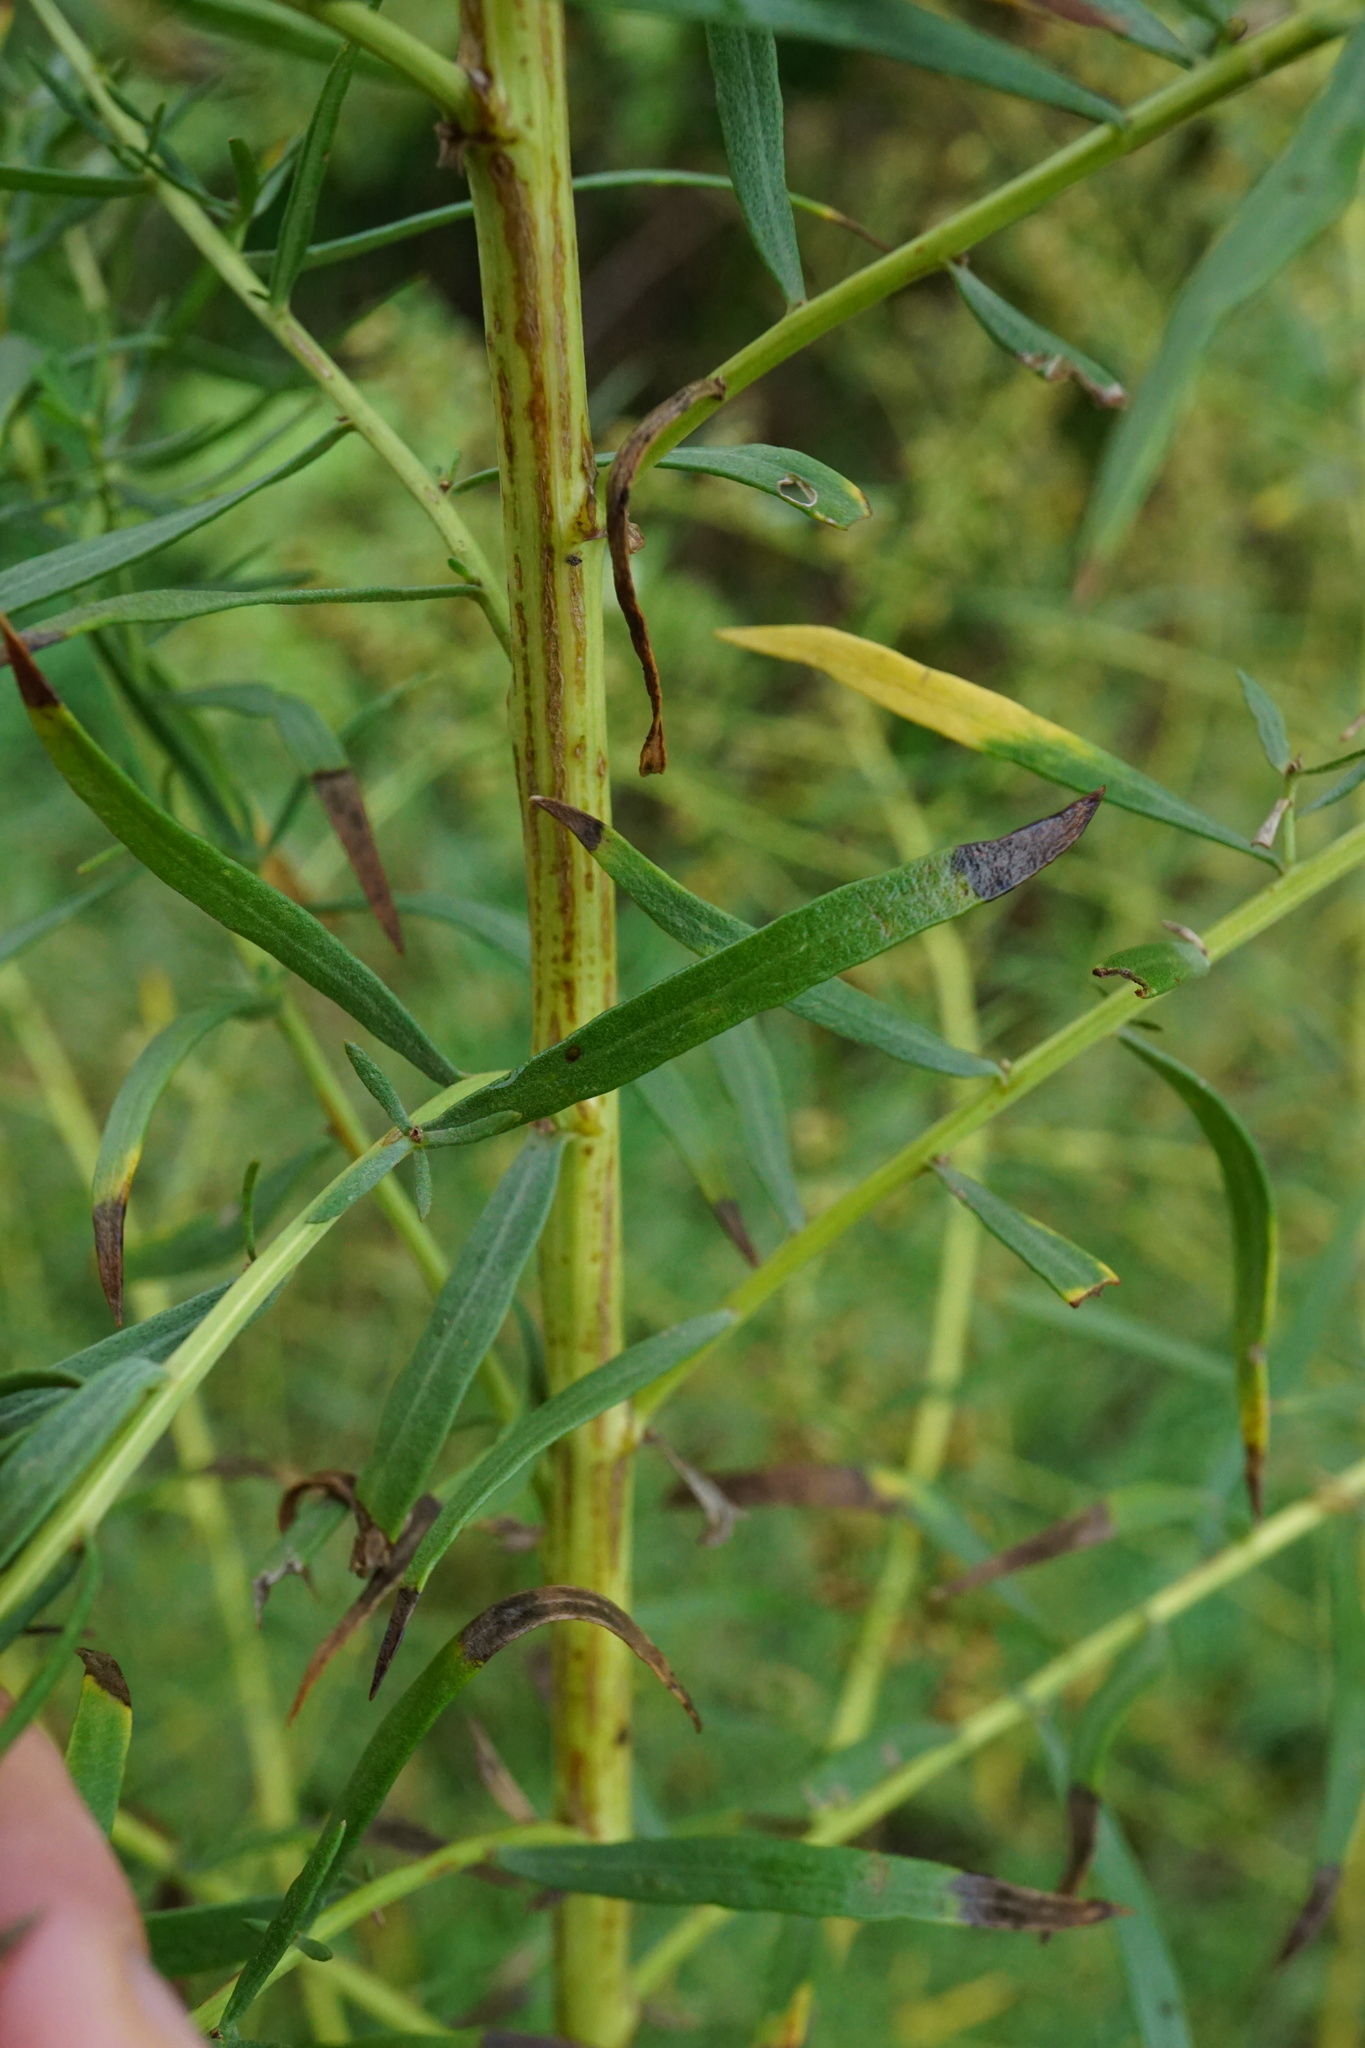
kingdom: Plantae
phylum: Tracheophyta
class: Magnoliopsida
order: Asterales
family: Asteraceae
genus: Artemisia
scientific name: Artemisia dracunculus
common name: Tarragon
